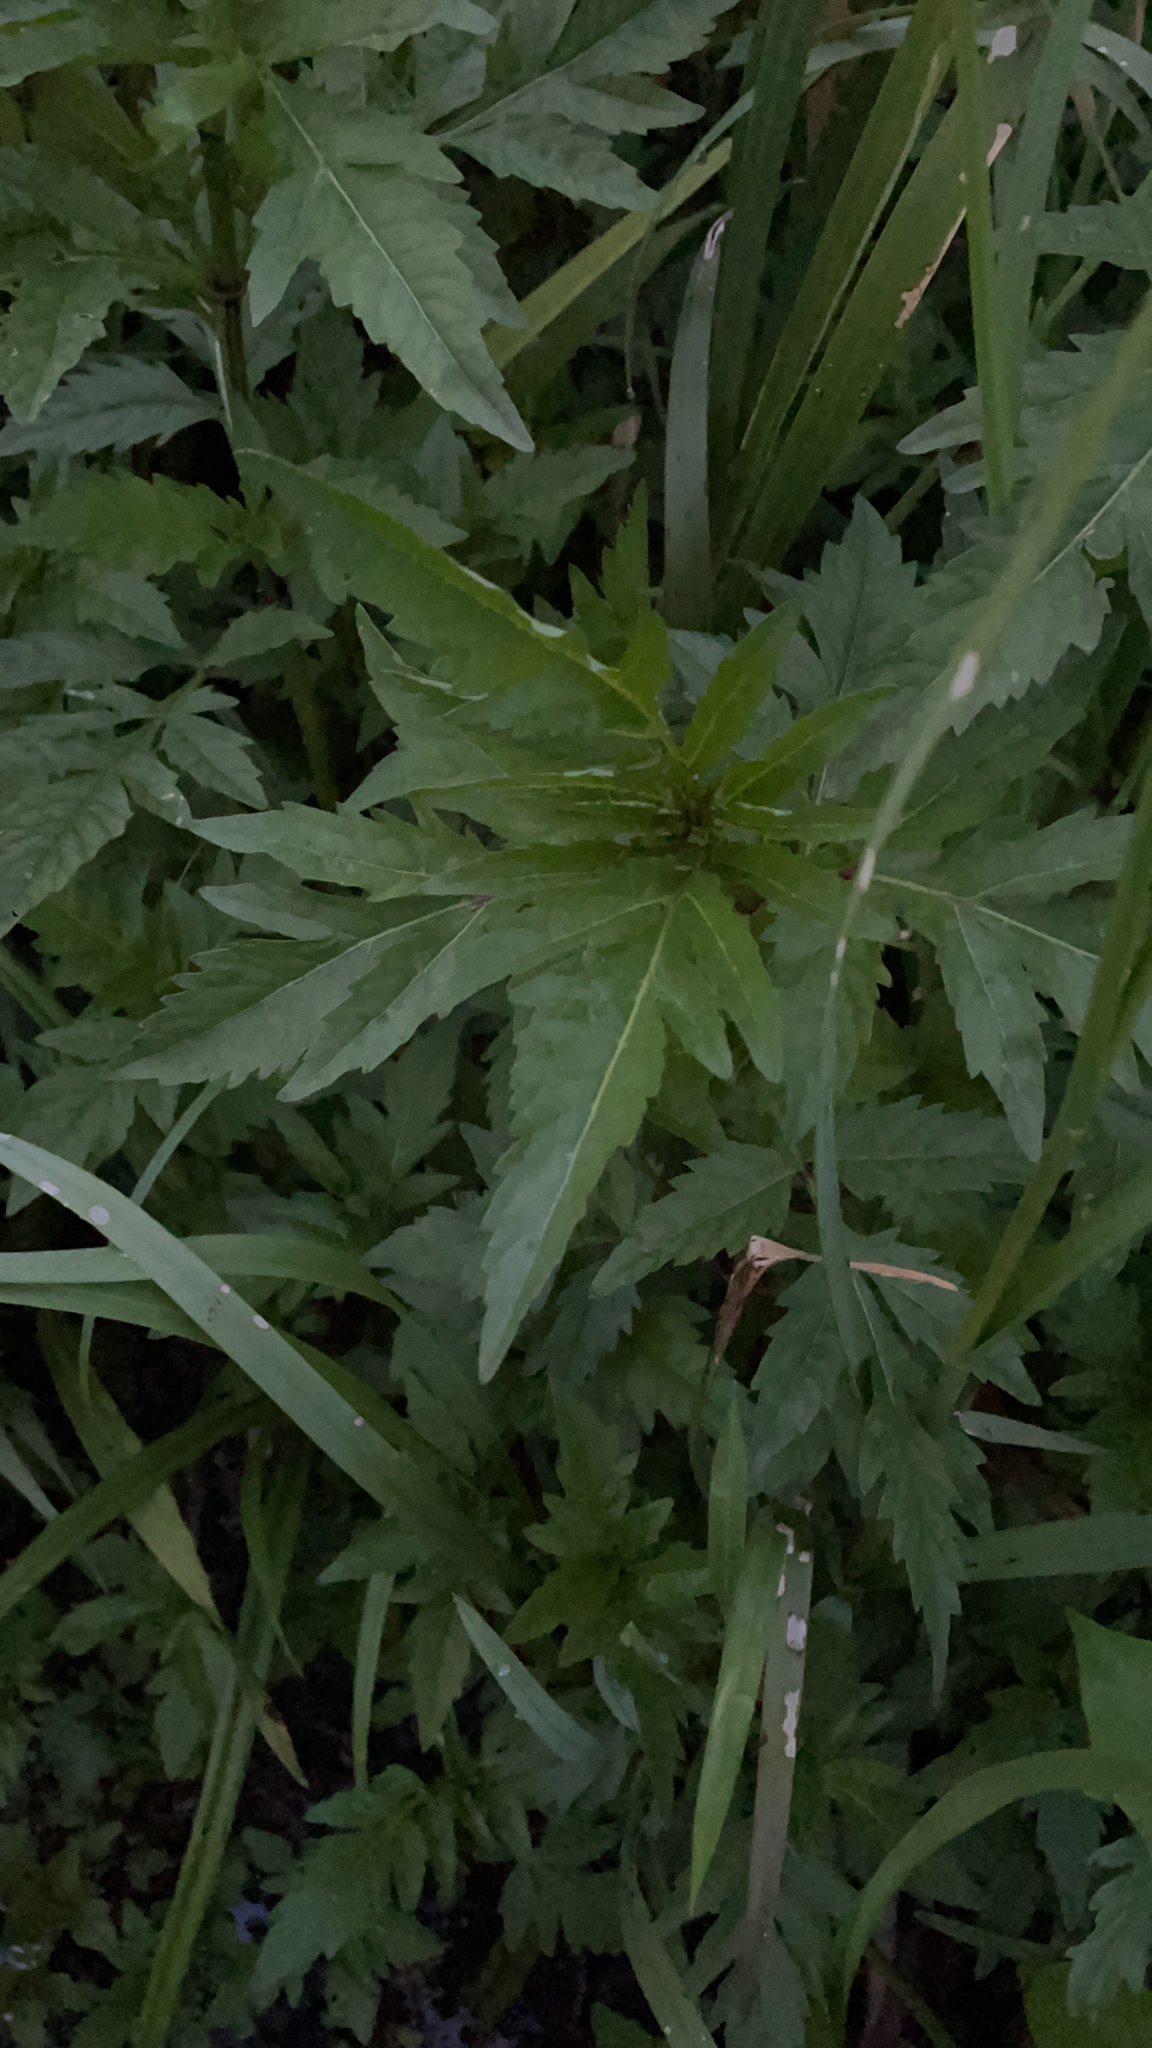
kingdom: Plantae
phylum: Tracheophyta
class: Magnoliopsida
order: Asterales
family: Asteraceae
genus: Bidens
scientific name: Bidens tripartita
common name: Trifid bur-marigold
